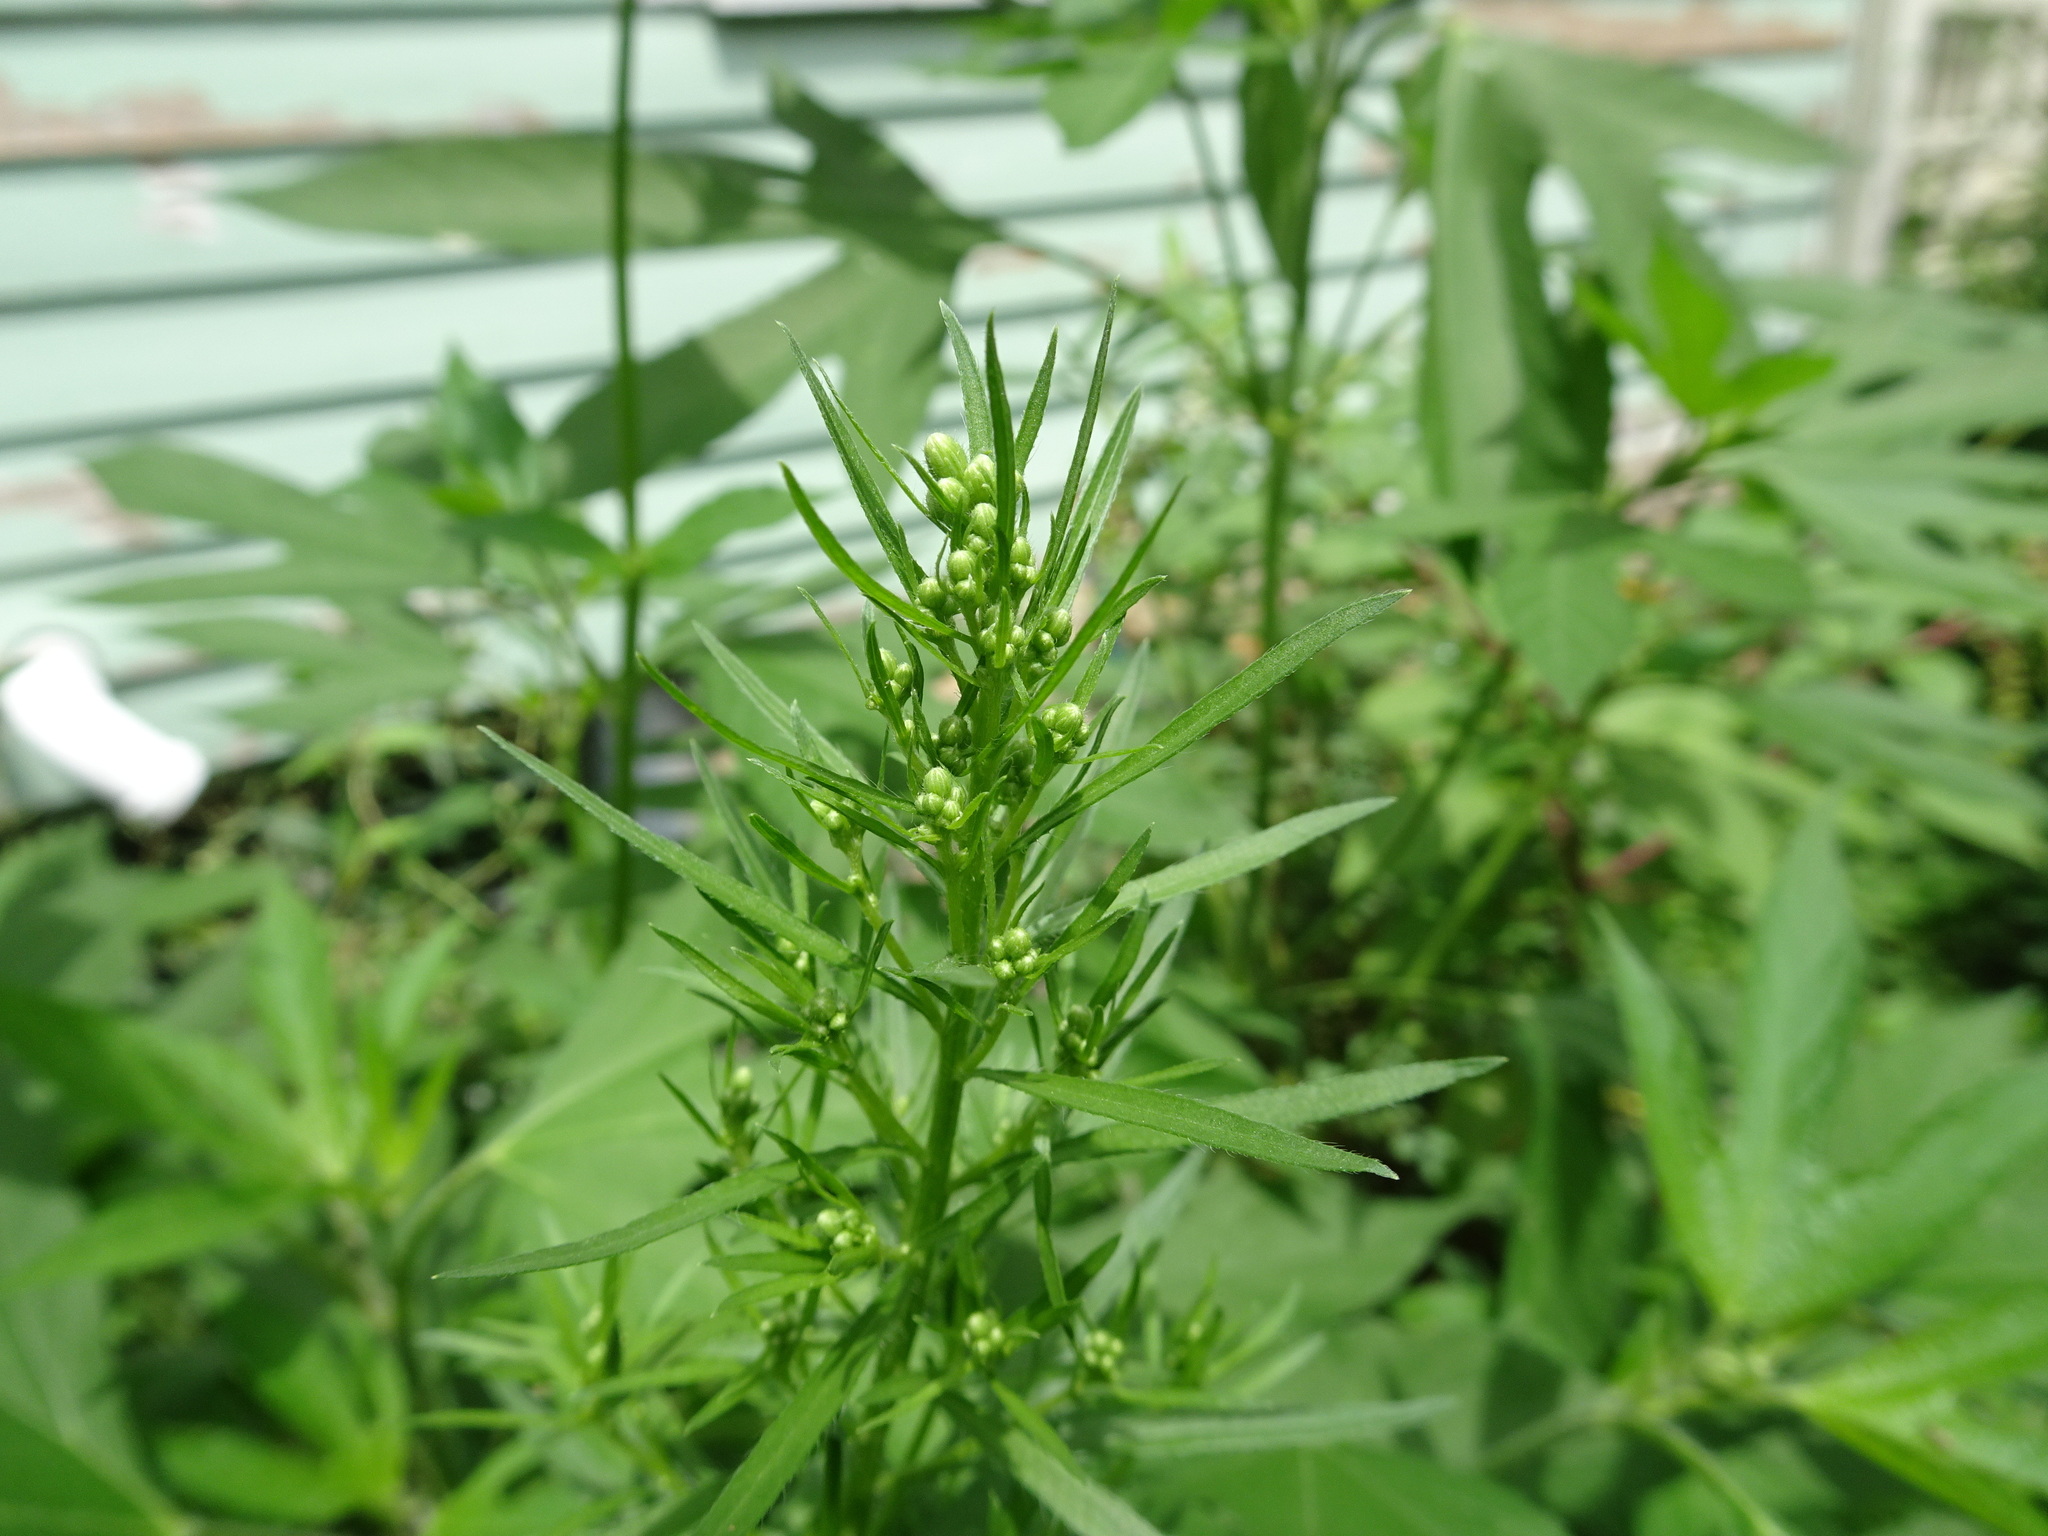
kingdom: Plantae
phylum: Tracheophyta
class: Magnoliopsida
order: Asterales
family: Asteraceae
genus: Erigeron
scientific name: Erigeron canadensis
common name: Canadian fleabane
